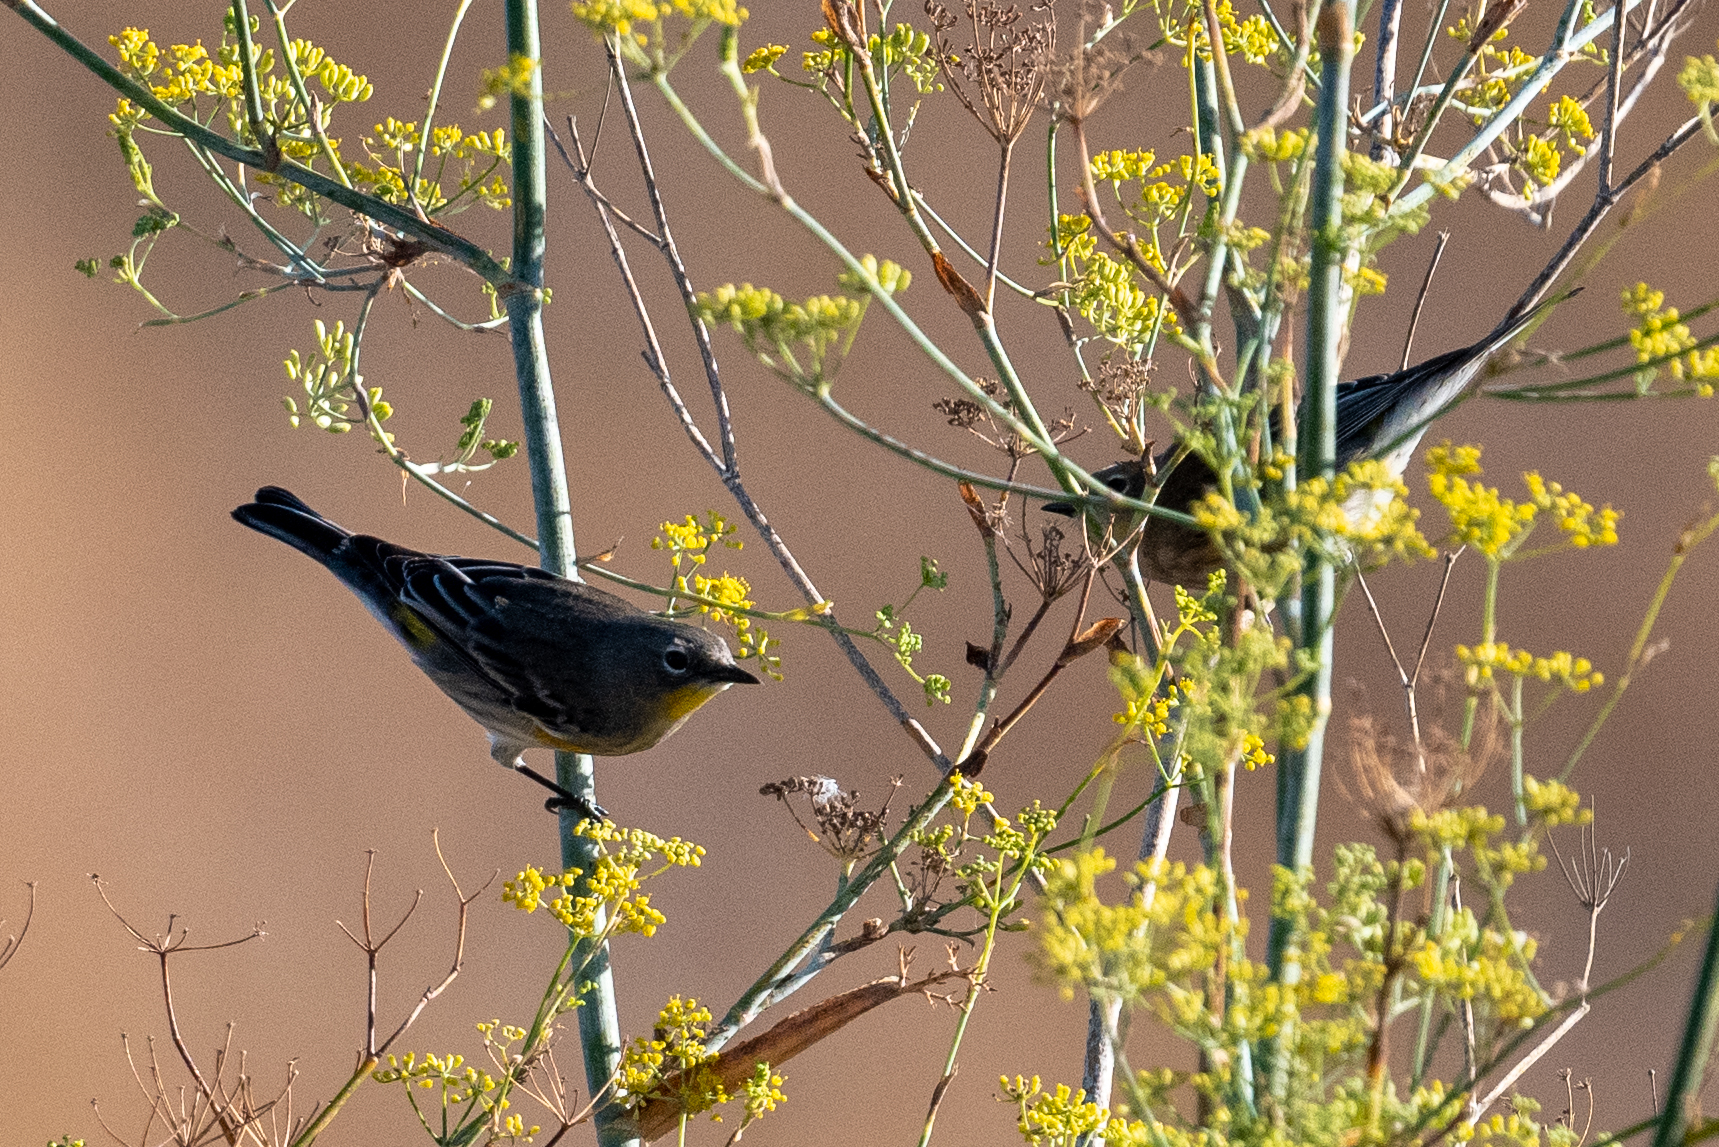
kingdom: Animalia
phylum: Chordata
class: Aves
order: Passeriformes
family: Parulidae
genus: Setophaga
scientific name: Setophaga coronata
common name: Myrtle warbler
